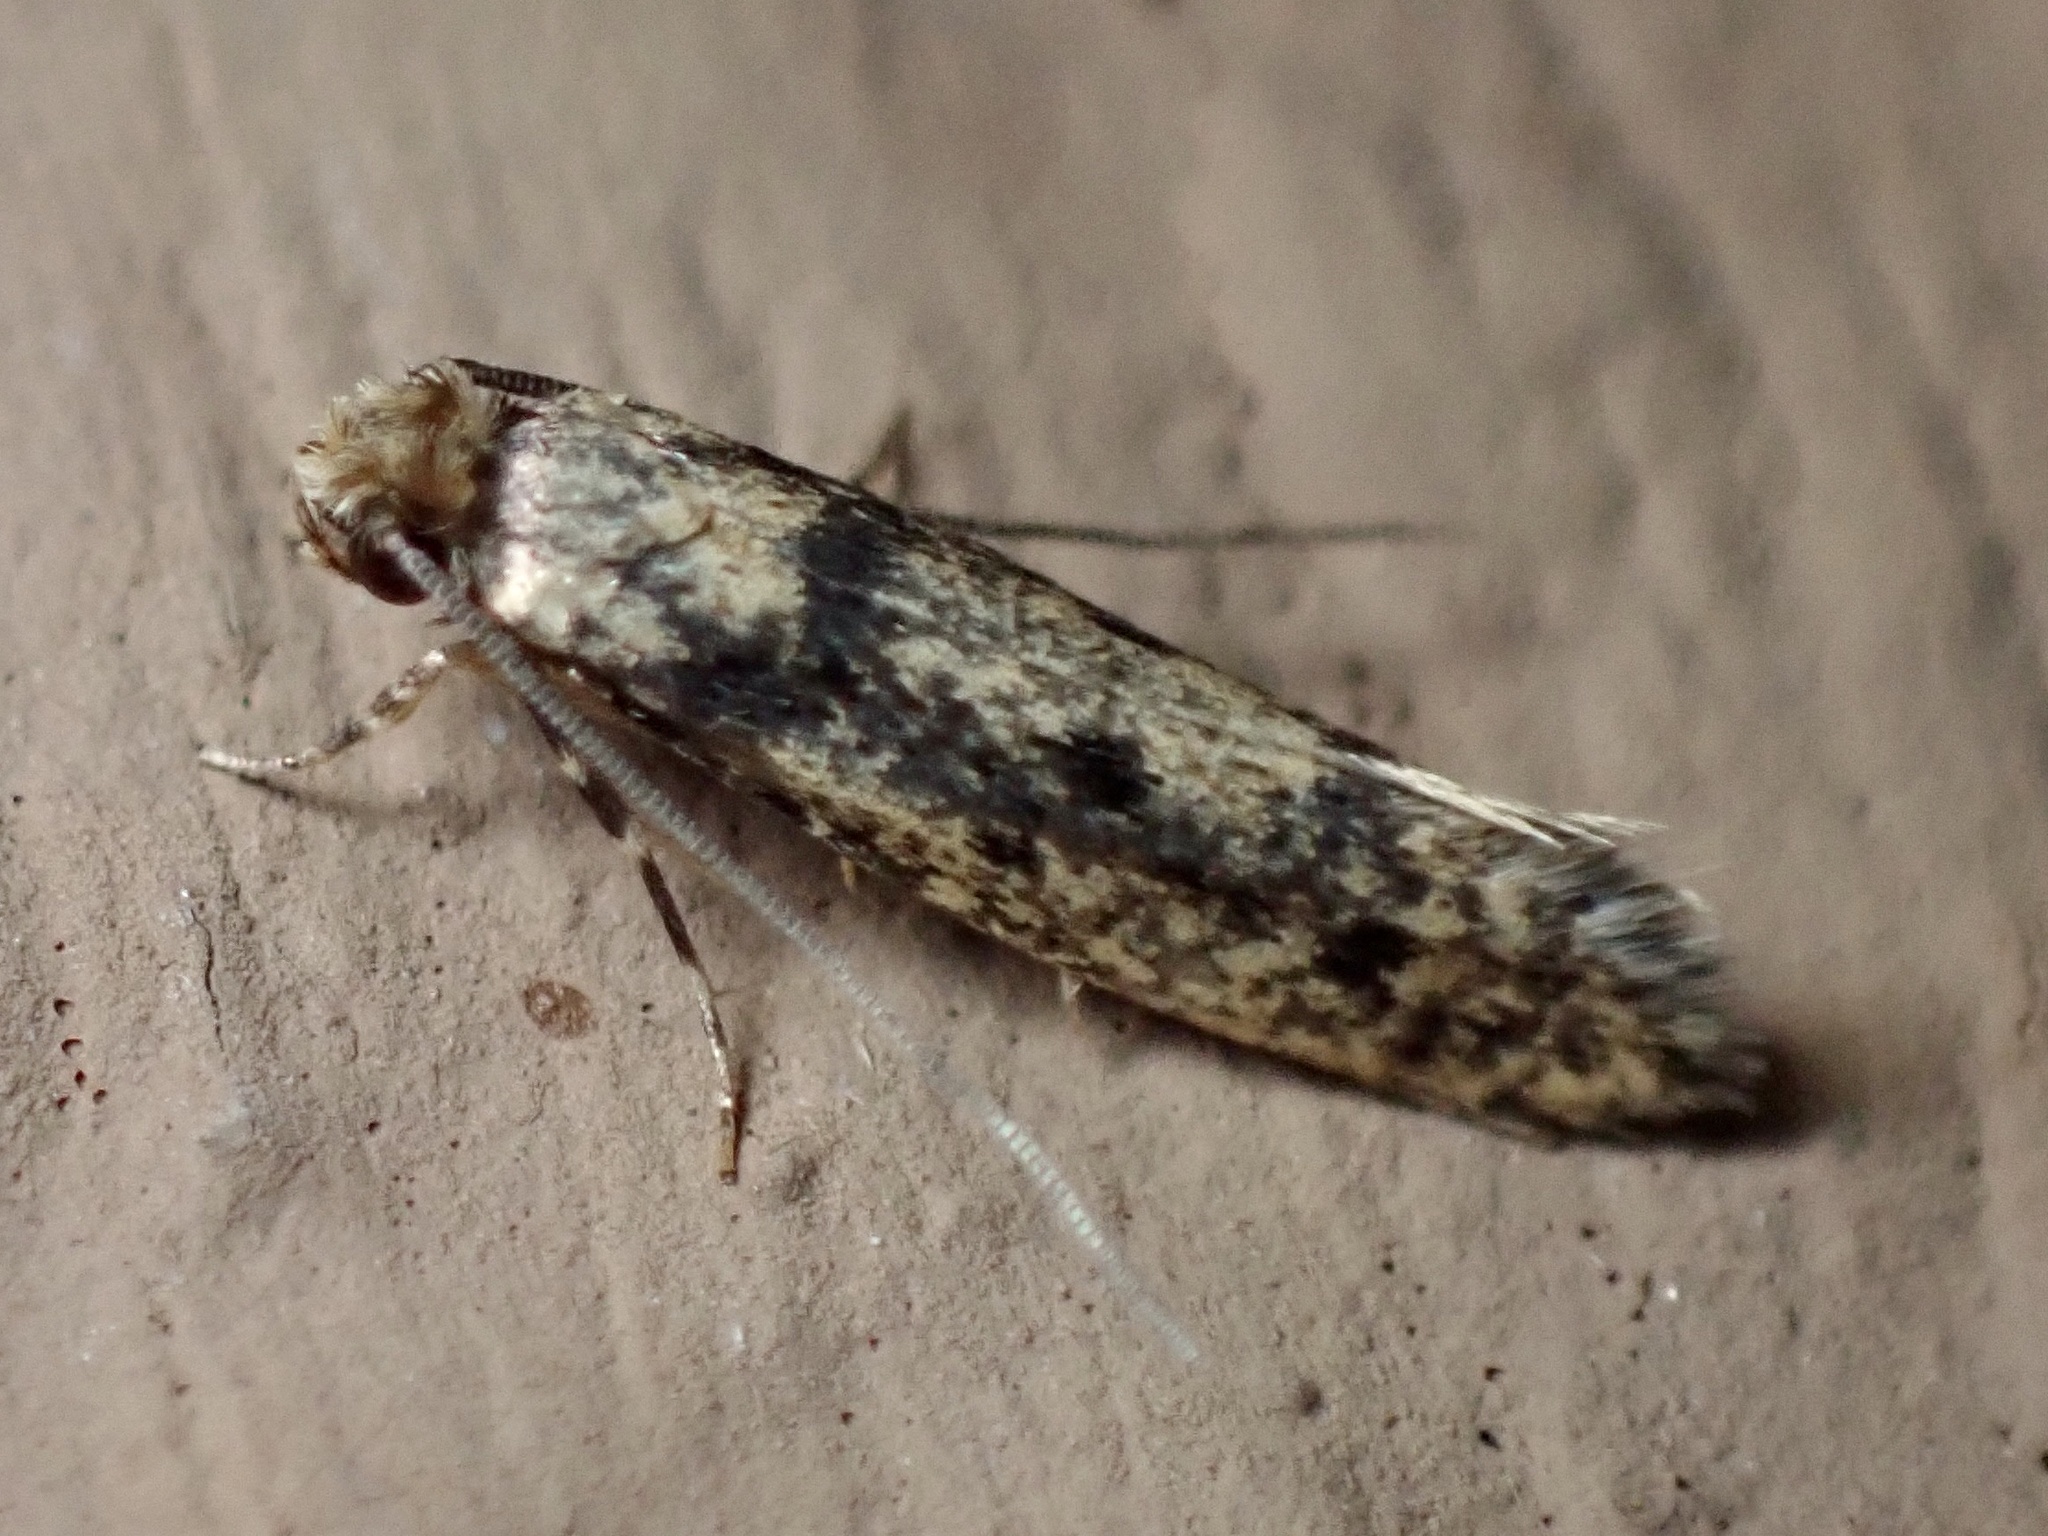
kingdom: Animalia
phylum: Arthropoda
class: Insecta
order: Lepidoptera
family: Tineidae
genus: Niditinea
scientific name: Niditinea fuscella
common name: Brown-dotted clothes moth
